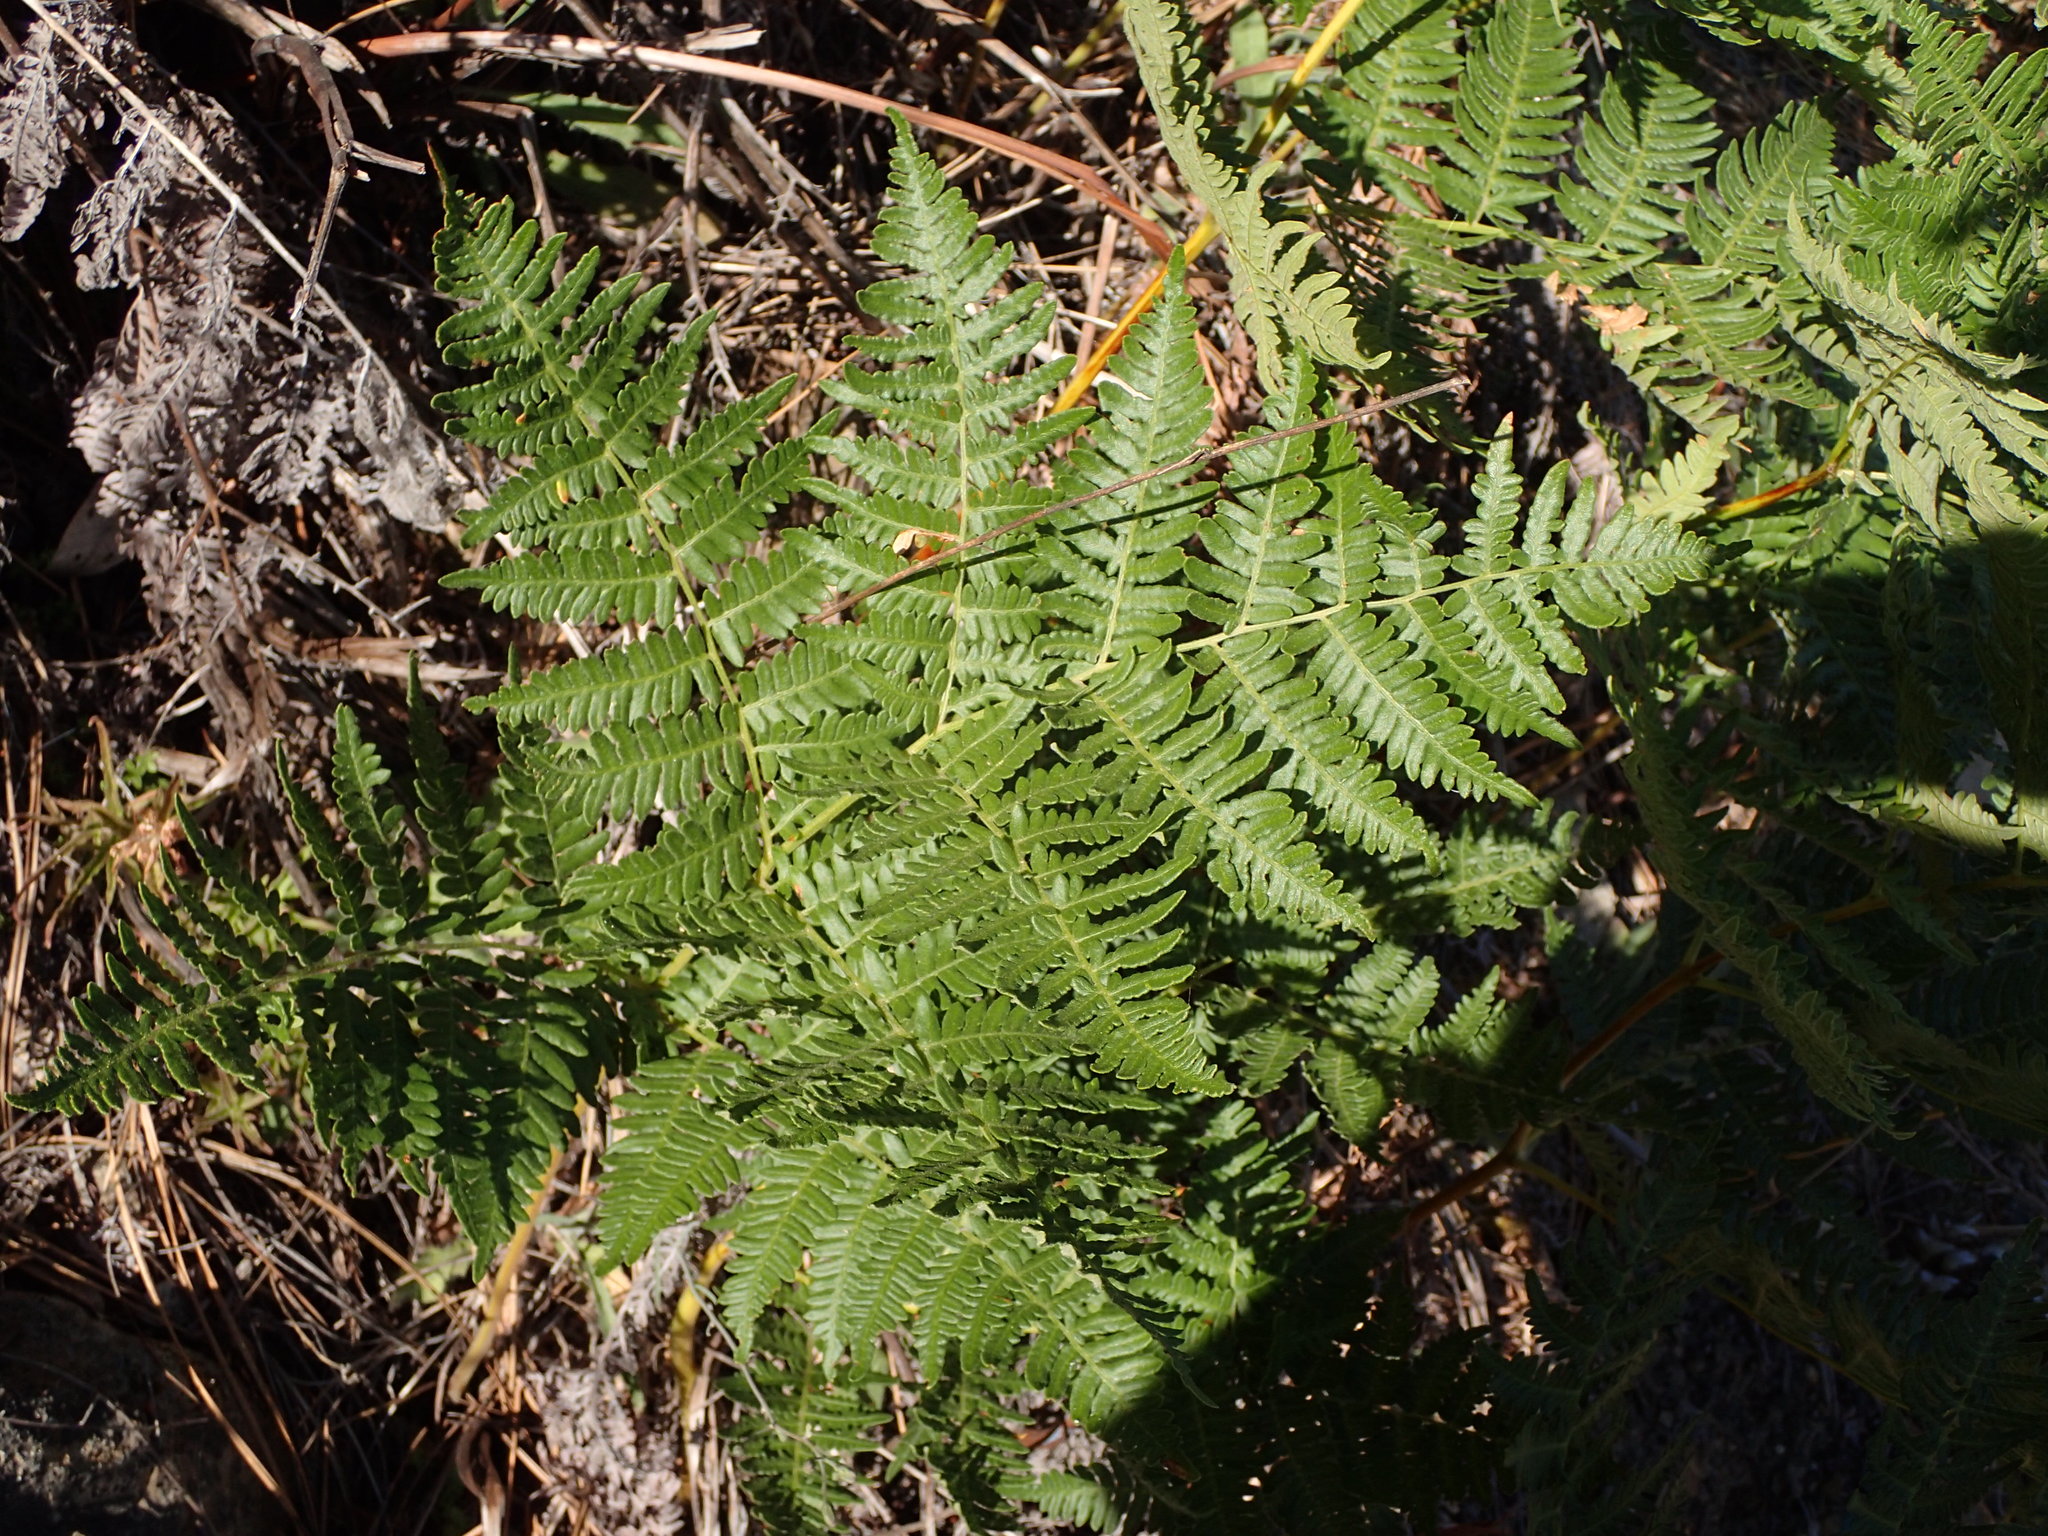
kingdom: Plantae
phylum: Tracheophyta
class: Polypodiopsida
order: Polypodiales
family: Dennstaedtiaceae
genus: Pteridium
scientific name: Pteridium aquilinum
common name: Bracken
